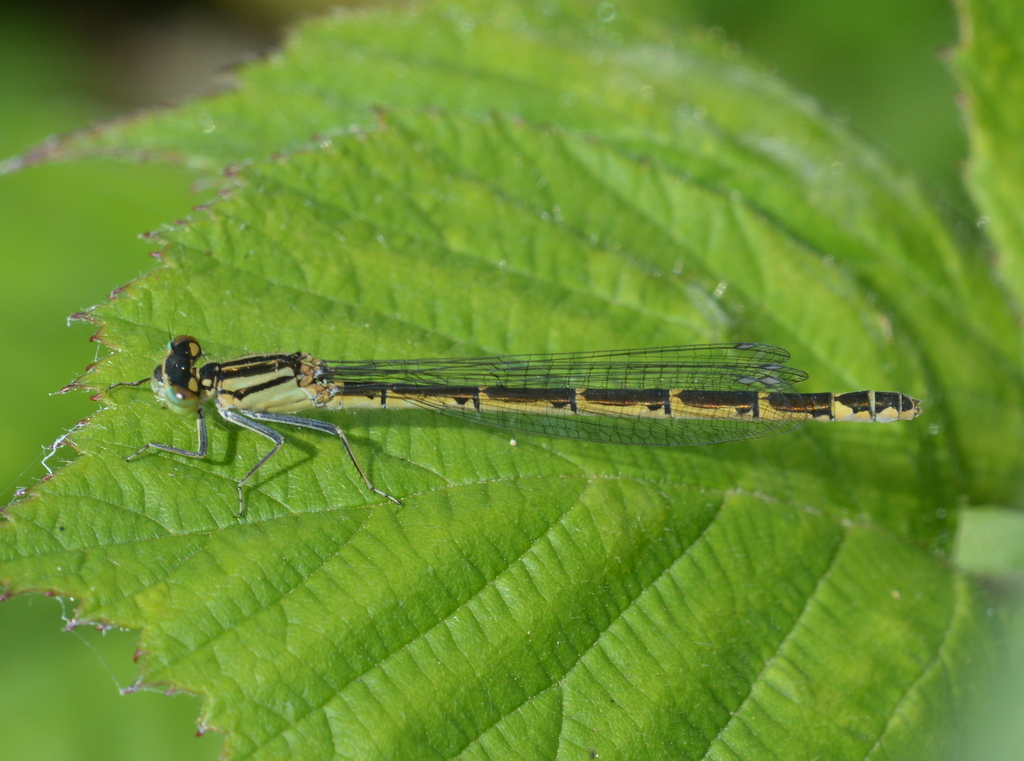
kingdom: Animalia
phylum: Arthropoda
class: Insecta
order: Odonata
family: Coenagrionidae
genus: Enallagma
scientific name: Enallagma cyathigerum
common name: Common blue damselfly
